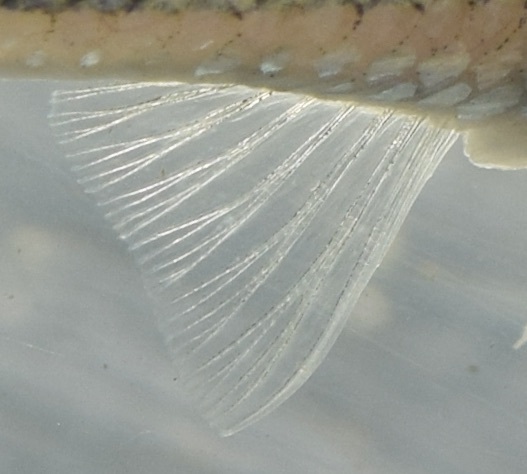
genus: Alburnops
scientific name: Alburnops
